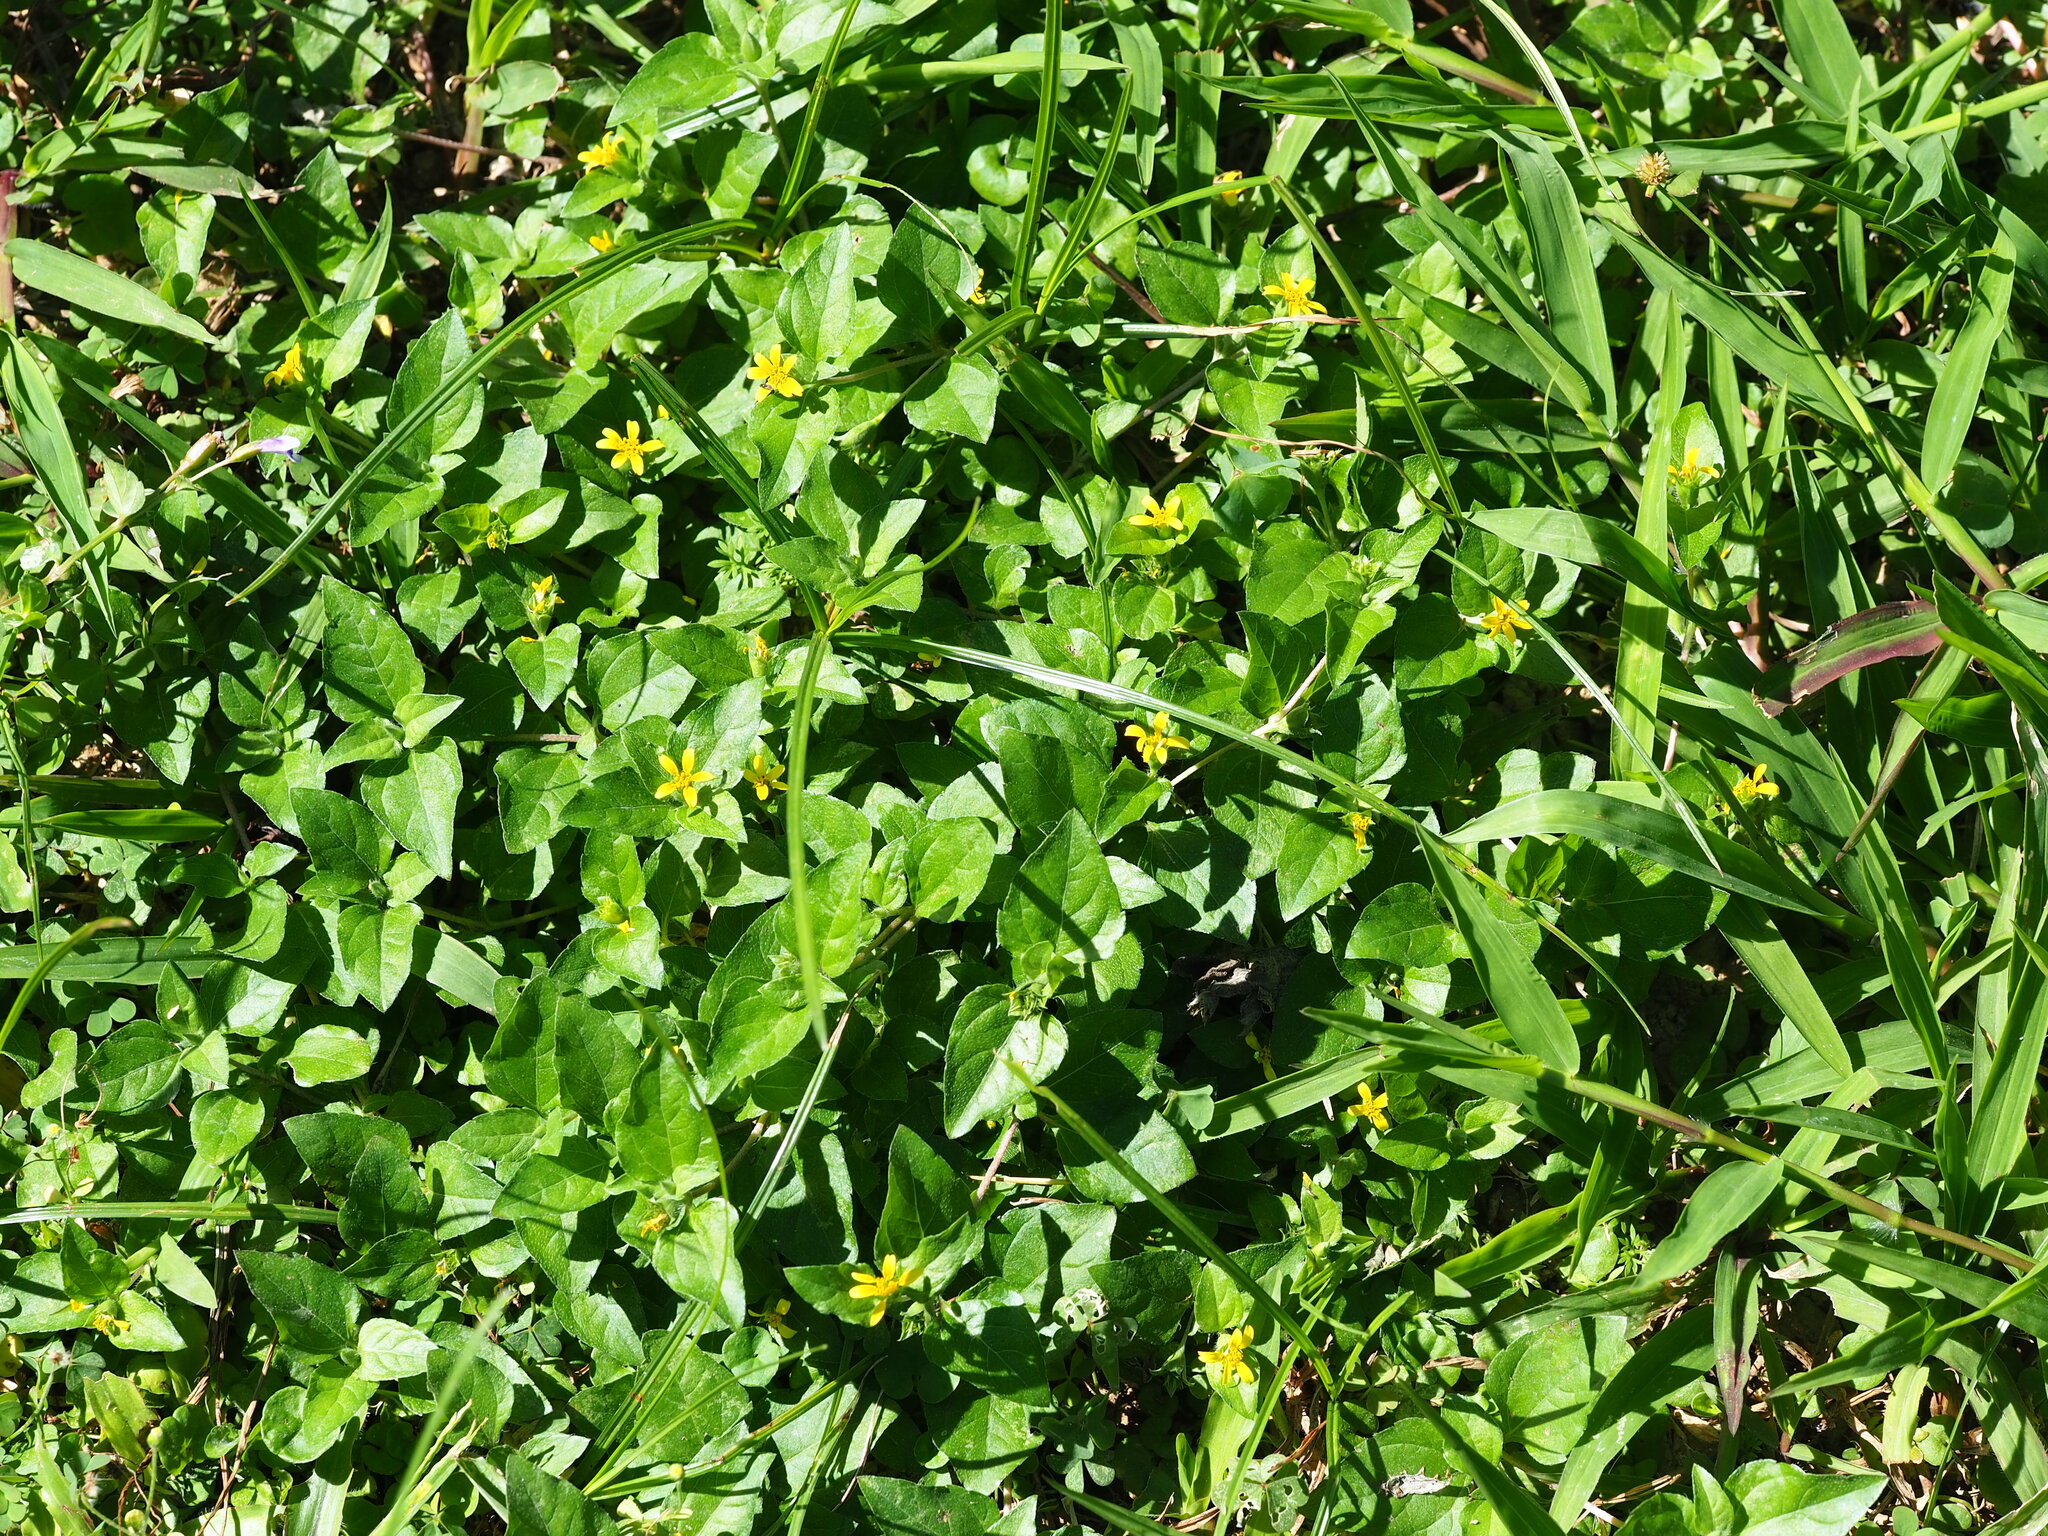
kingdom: Plantae
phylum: Tracheophyta
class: Magnoliopsida
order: Asterales
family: Asteraceae
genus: Calyptocarpus
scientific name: Calyptocarpus vialis
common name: Straggler daisy
